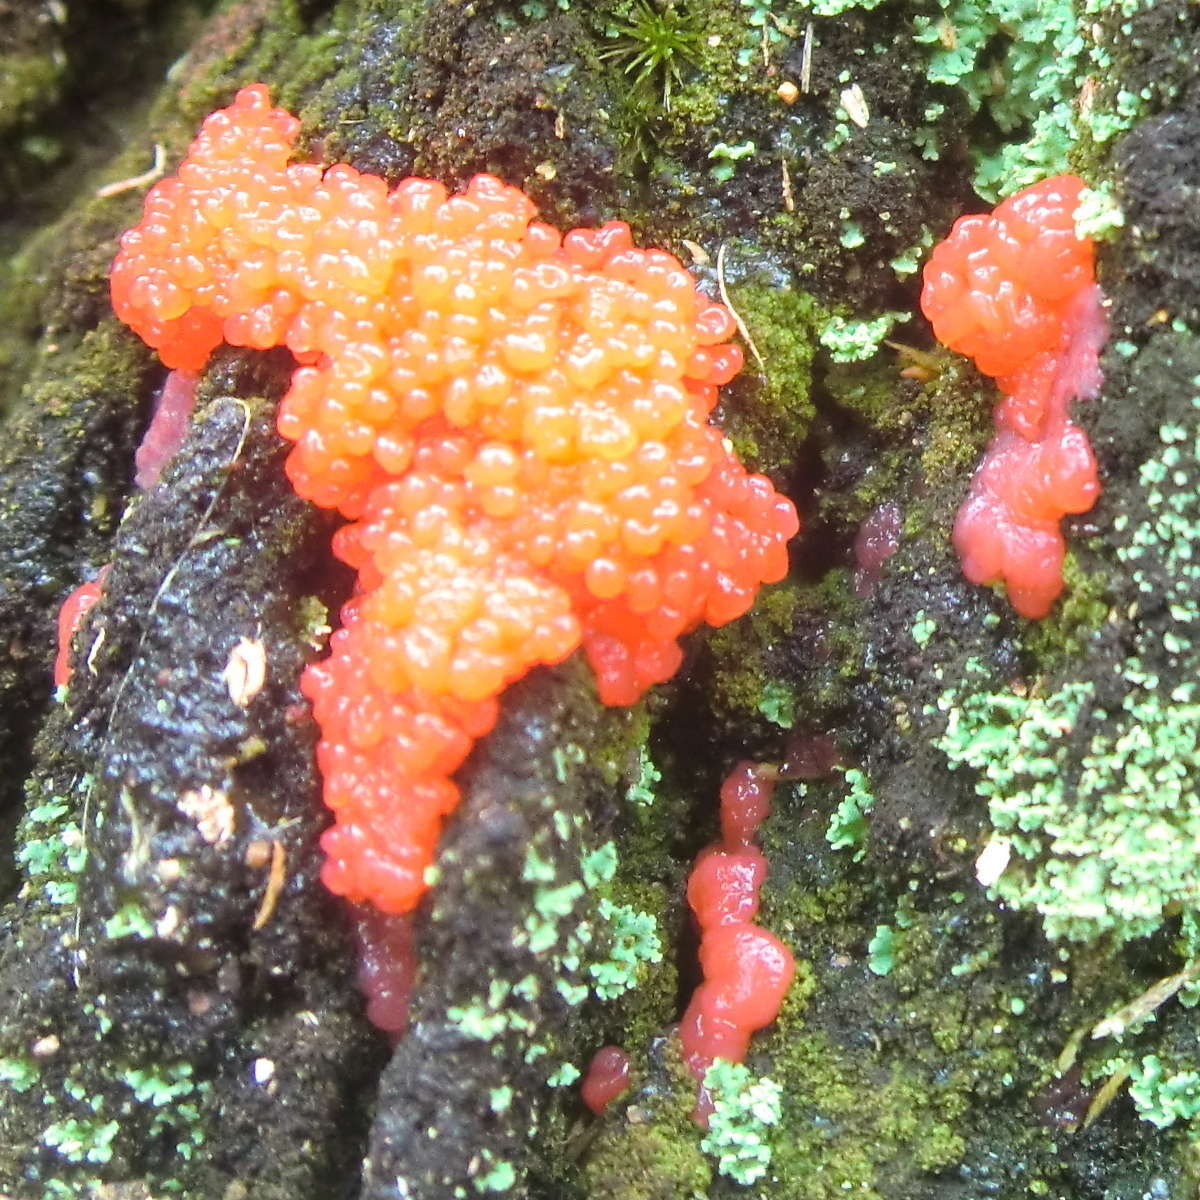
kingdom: Protozoa
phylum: Mycetozoa
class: Myxomycetes
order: Cribrariales
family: Tubiferaceae
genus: Tubifera
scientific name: Tubifera ferruginosa
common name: Red raspberry slime mold
